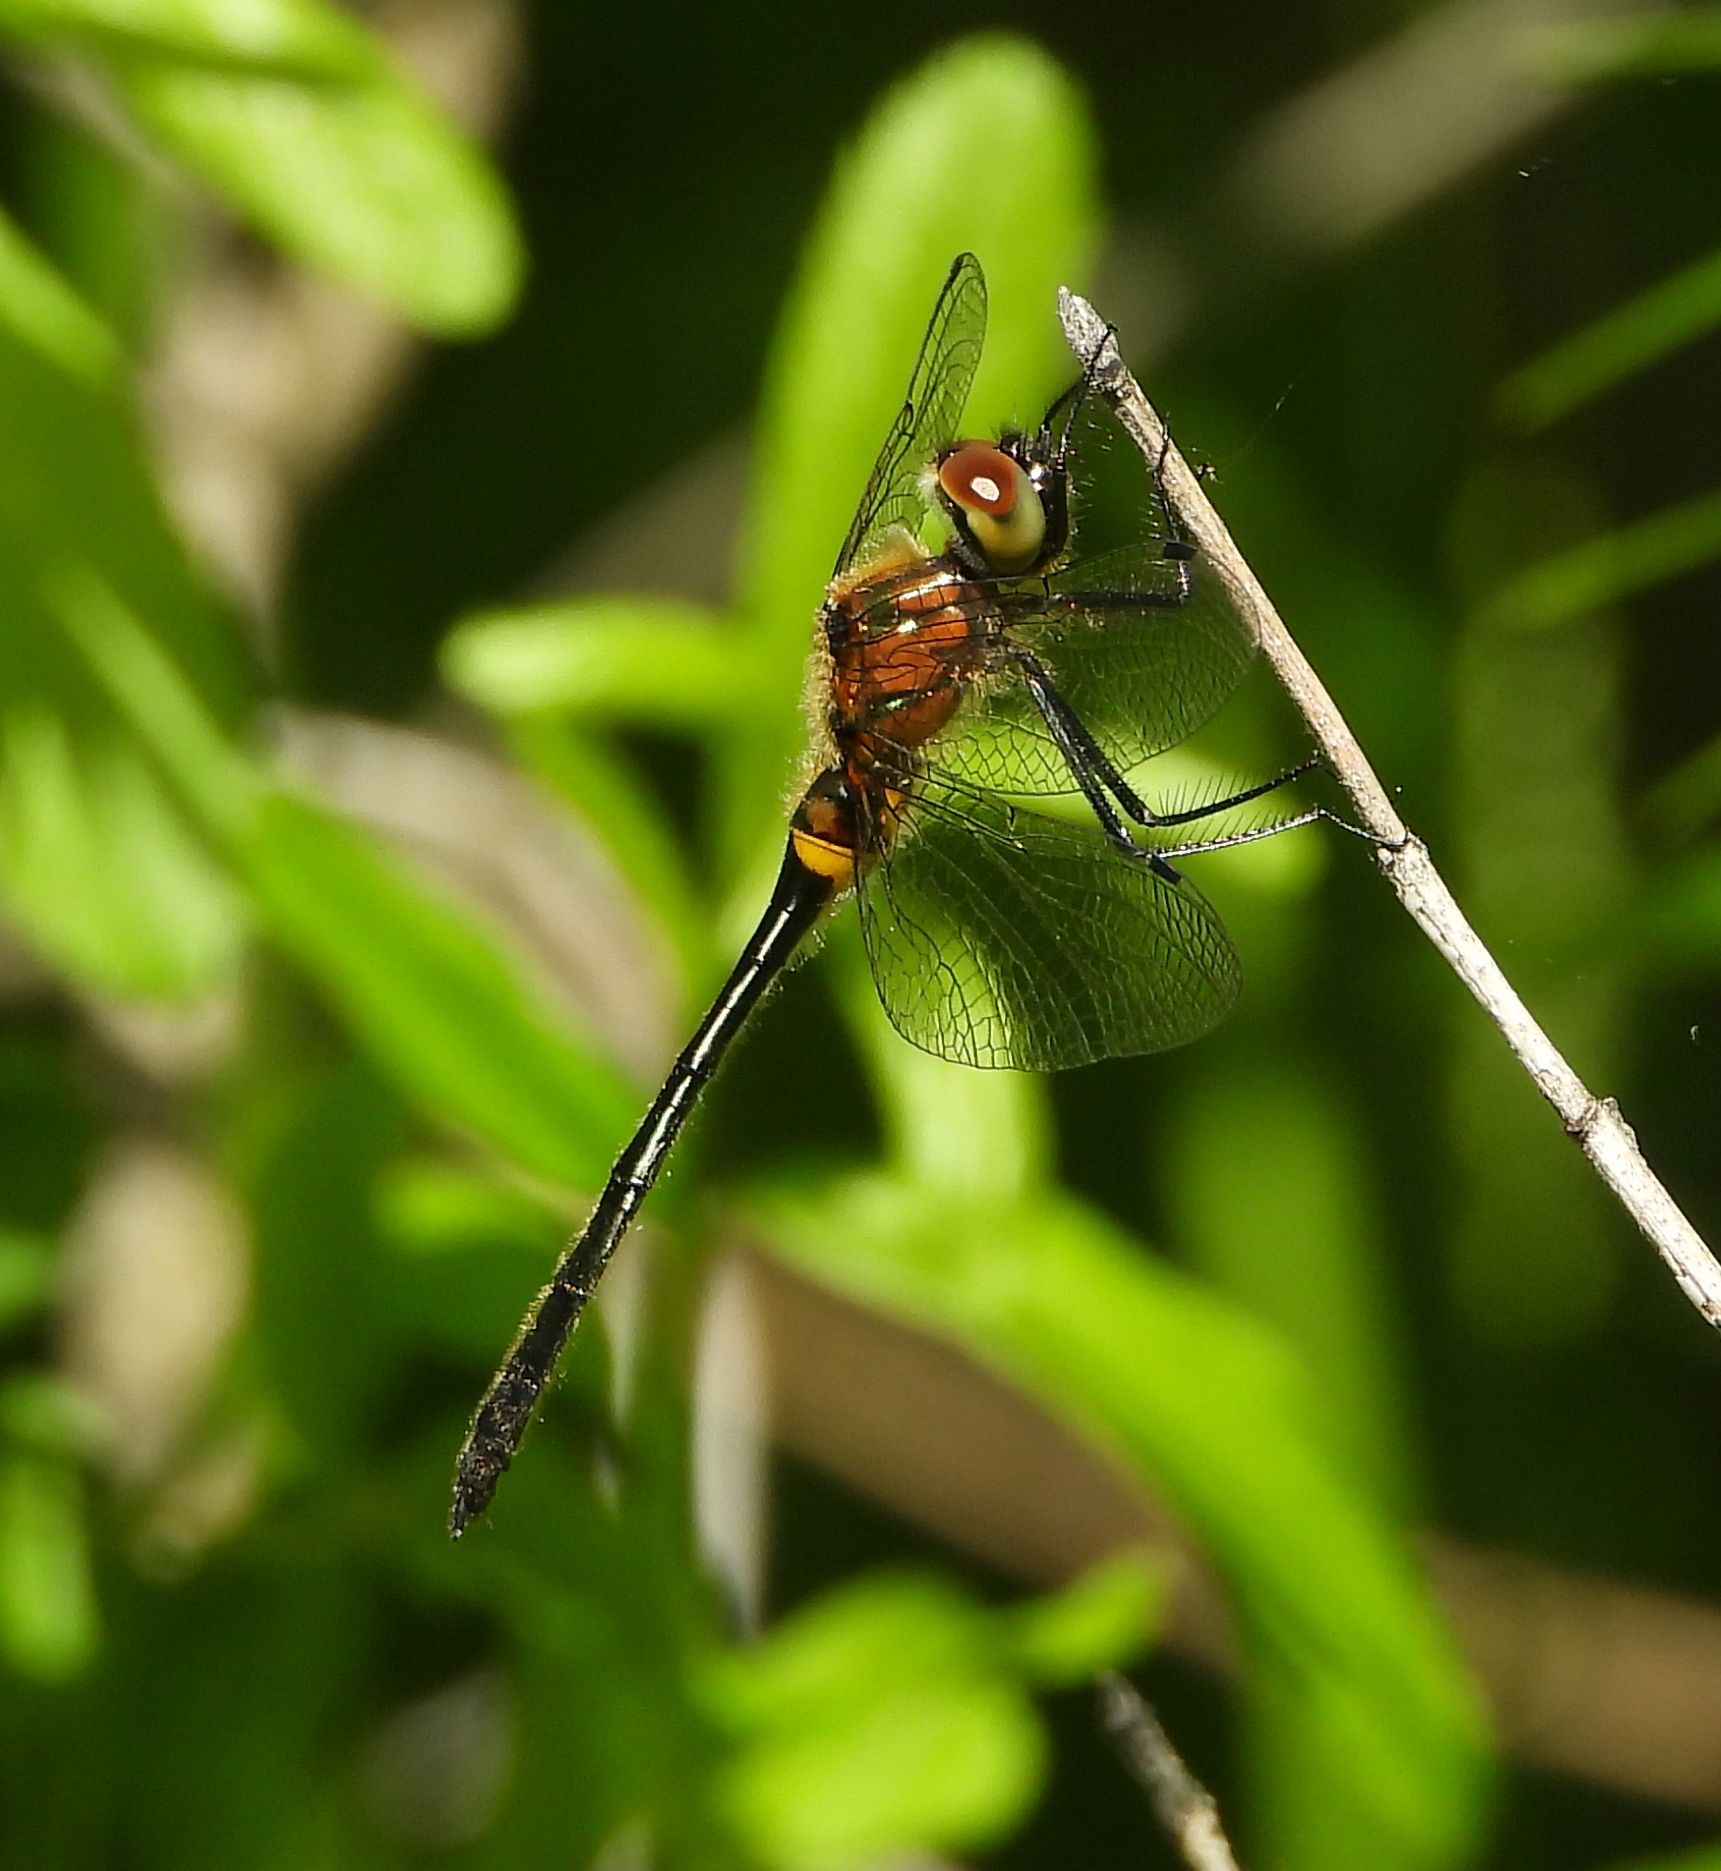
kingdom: Animalia
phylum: Arthropoda
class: Insecta
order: Odonata
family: Corduliidae
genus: Dorocordulia
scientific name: Dorocordulia libera
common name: Racket-tailed emerald
